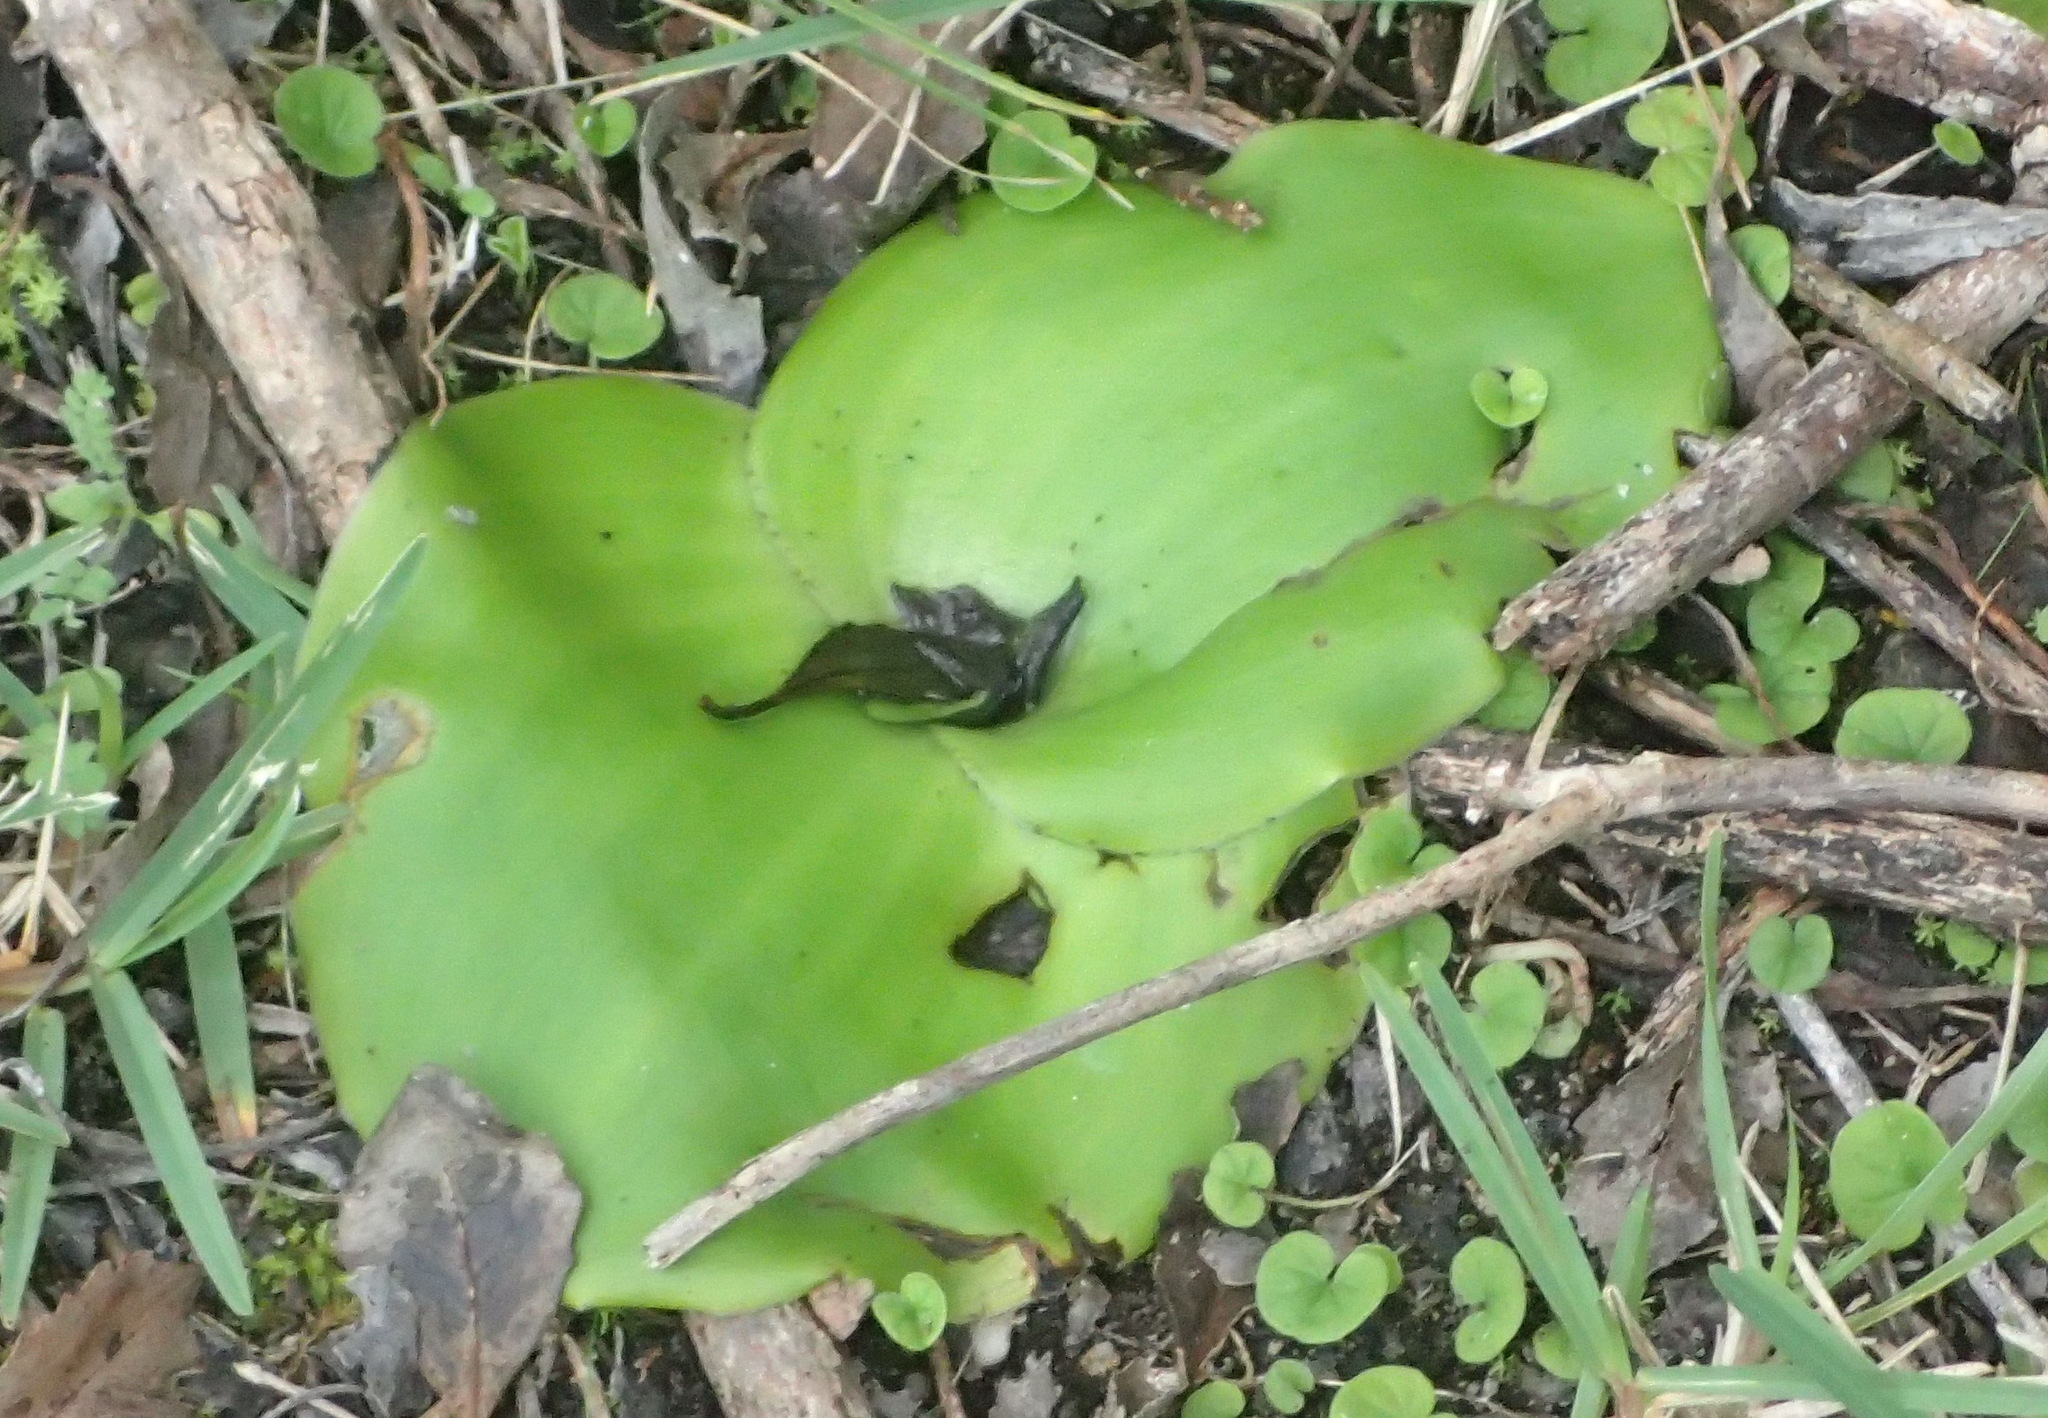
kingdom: Plantae
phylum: Tracheophyta
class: Liliopsida
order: Asparagales
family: Orchidaceae
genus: Satyrium
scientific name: Satyrium princeps
